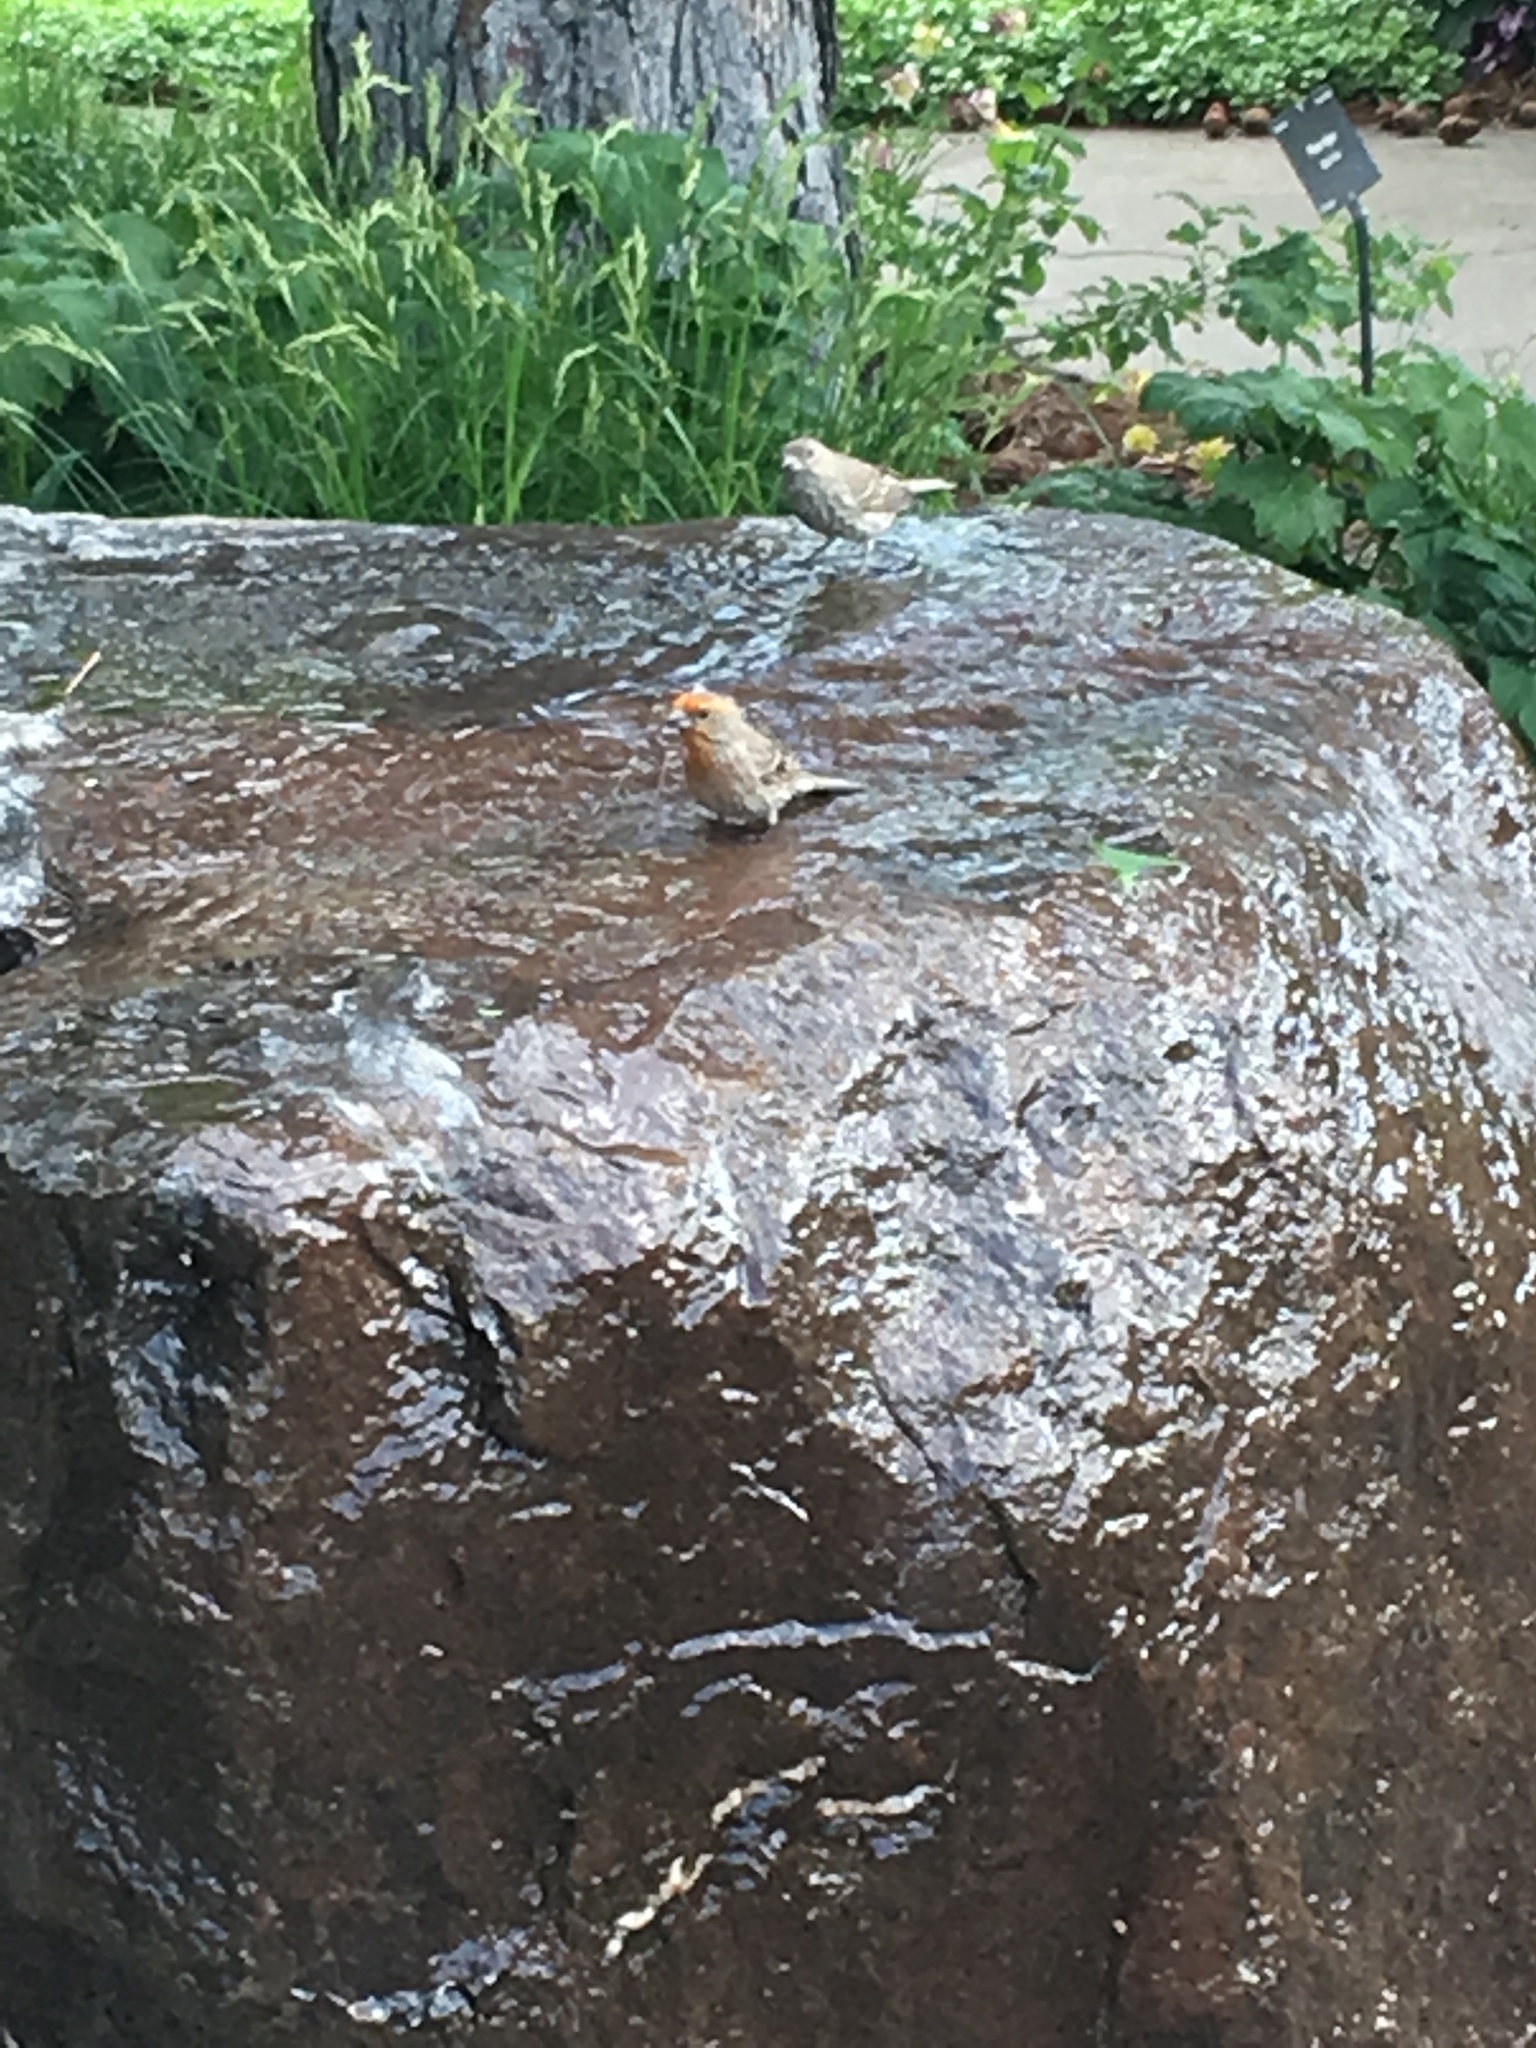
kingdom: Animalia
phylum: Chordata
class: Aves
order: Passeriformes
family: Fringillidae
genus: Haemorhous
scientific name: Haemorhous mexicanus
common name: House finch
